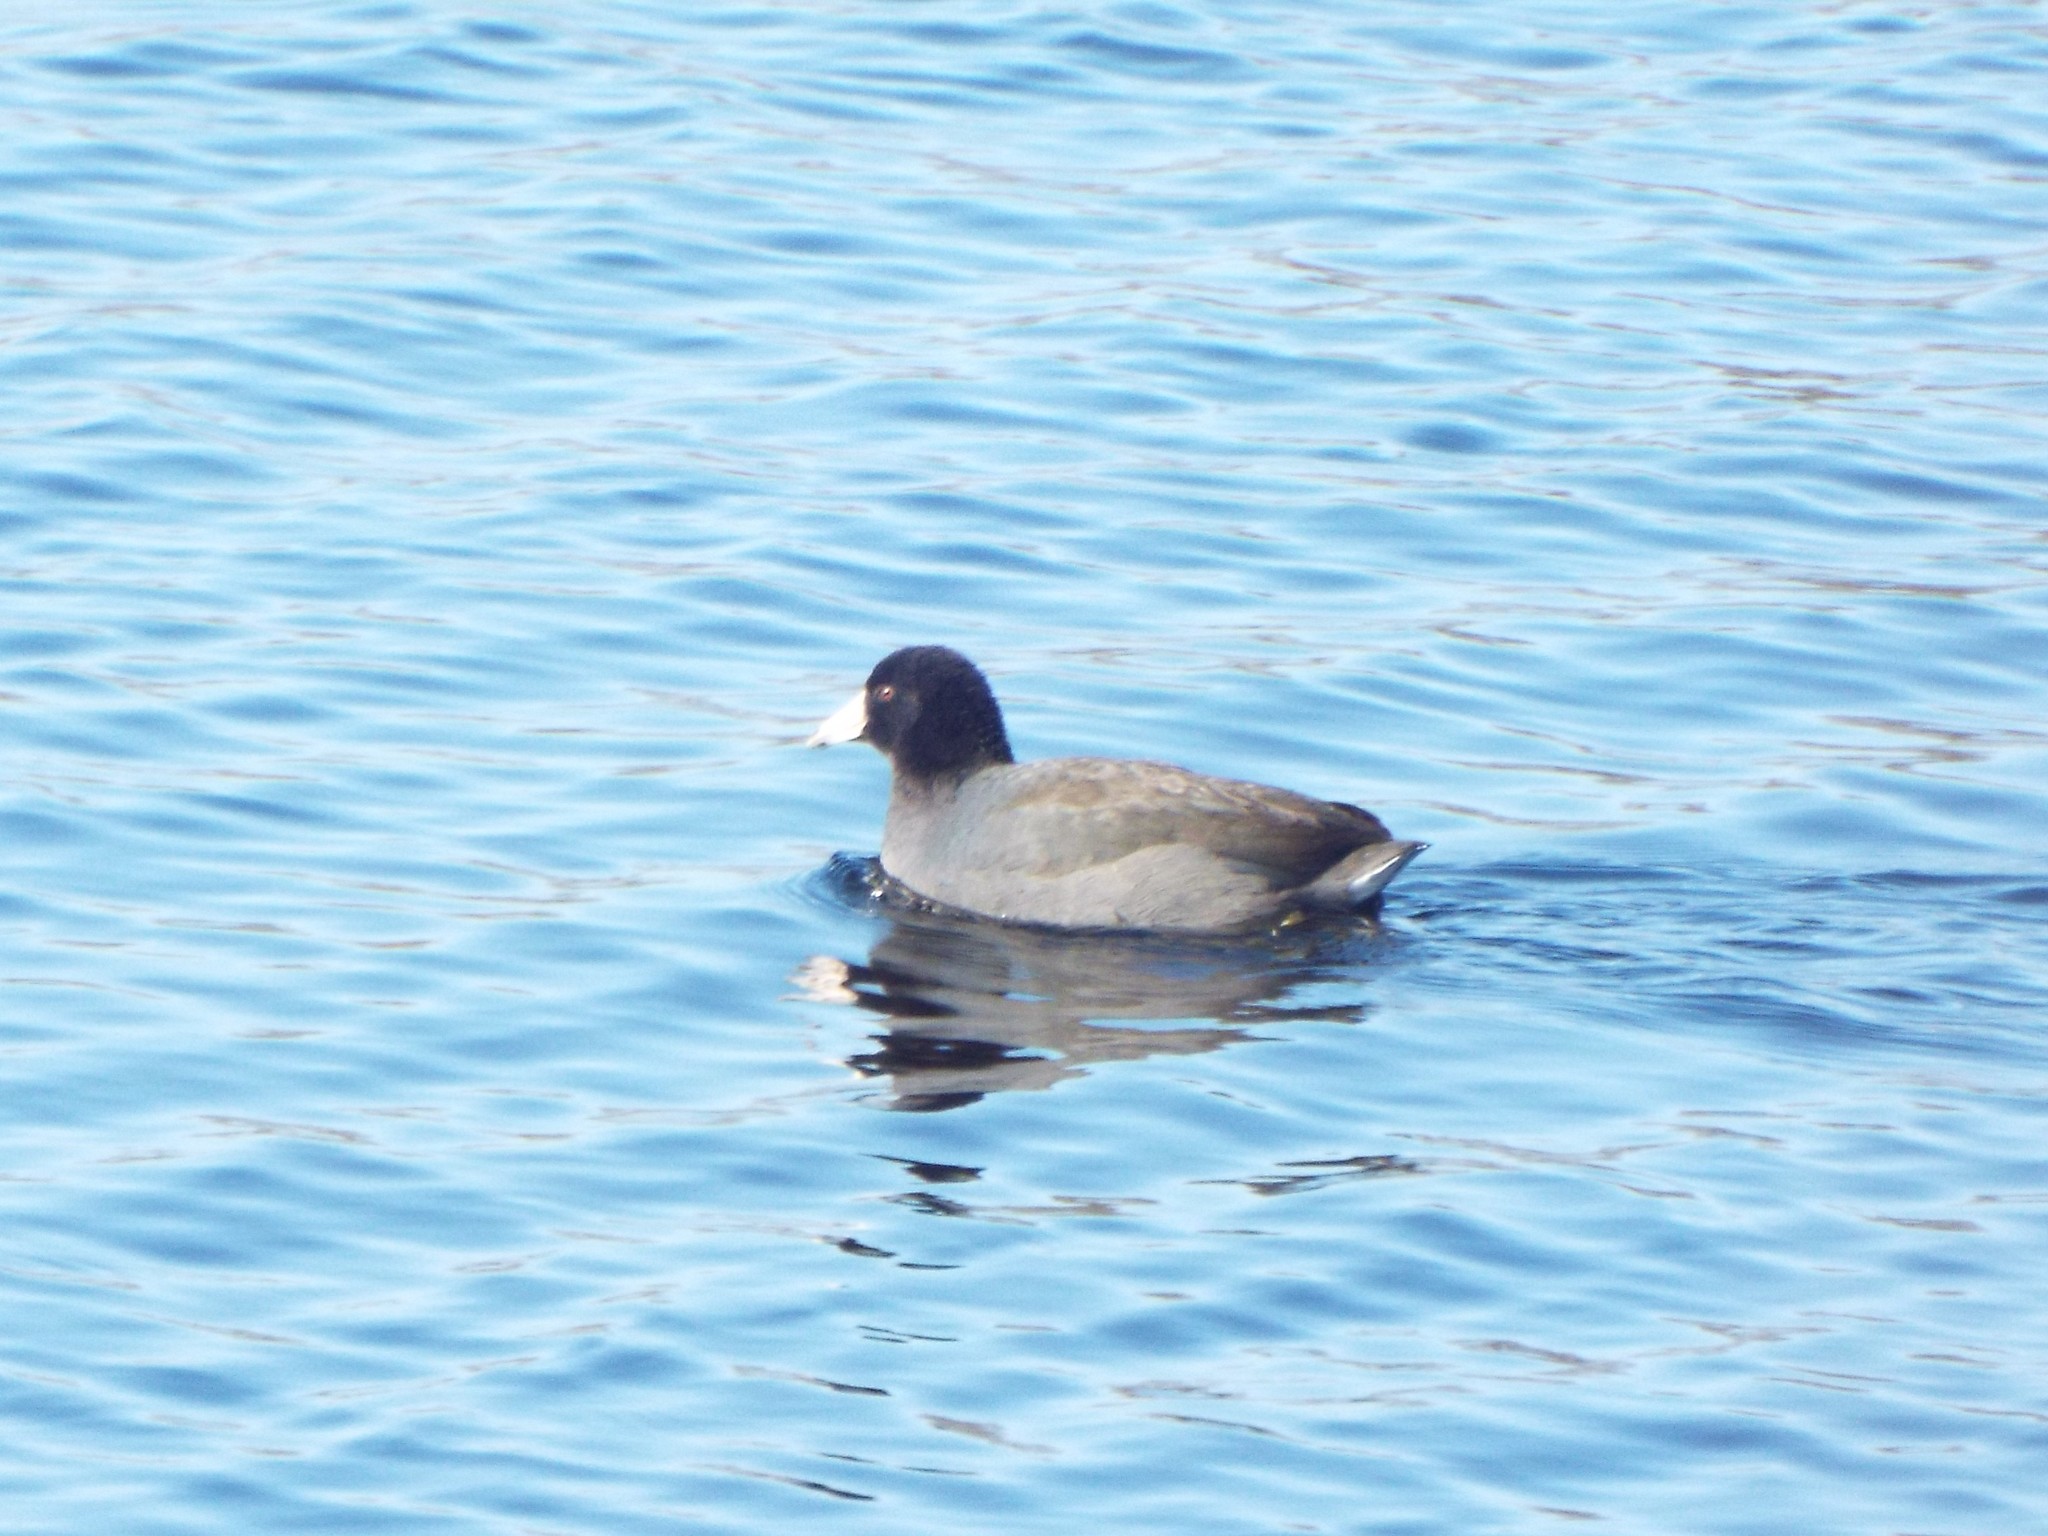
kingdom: Animalia
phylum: Chordata
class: Aves
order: Gruiformes
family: Rallidae
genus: Fulica
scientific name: Fulica americana
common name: American coot
